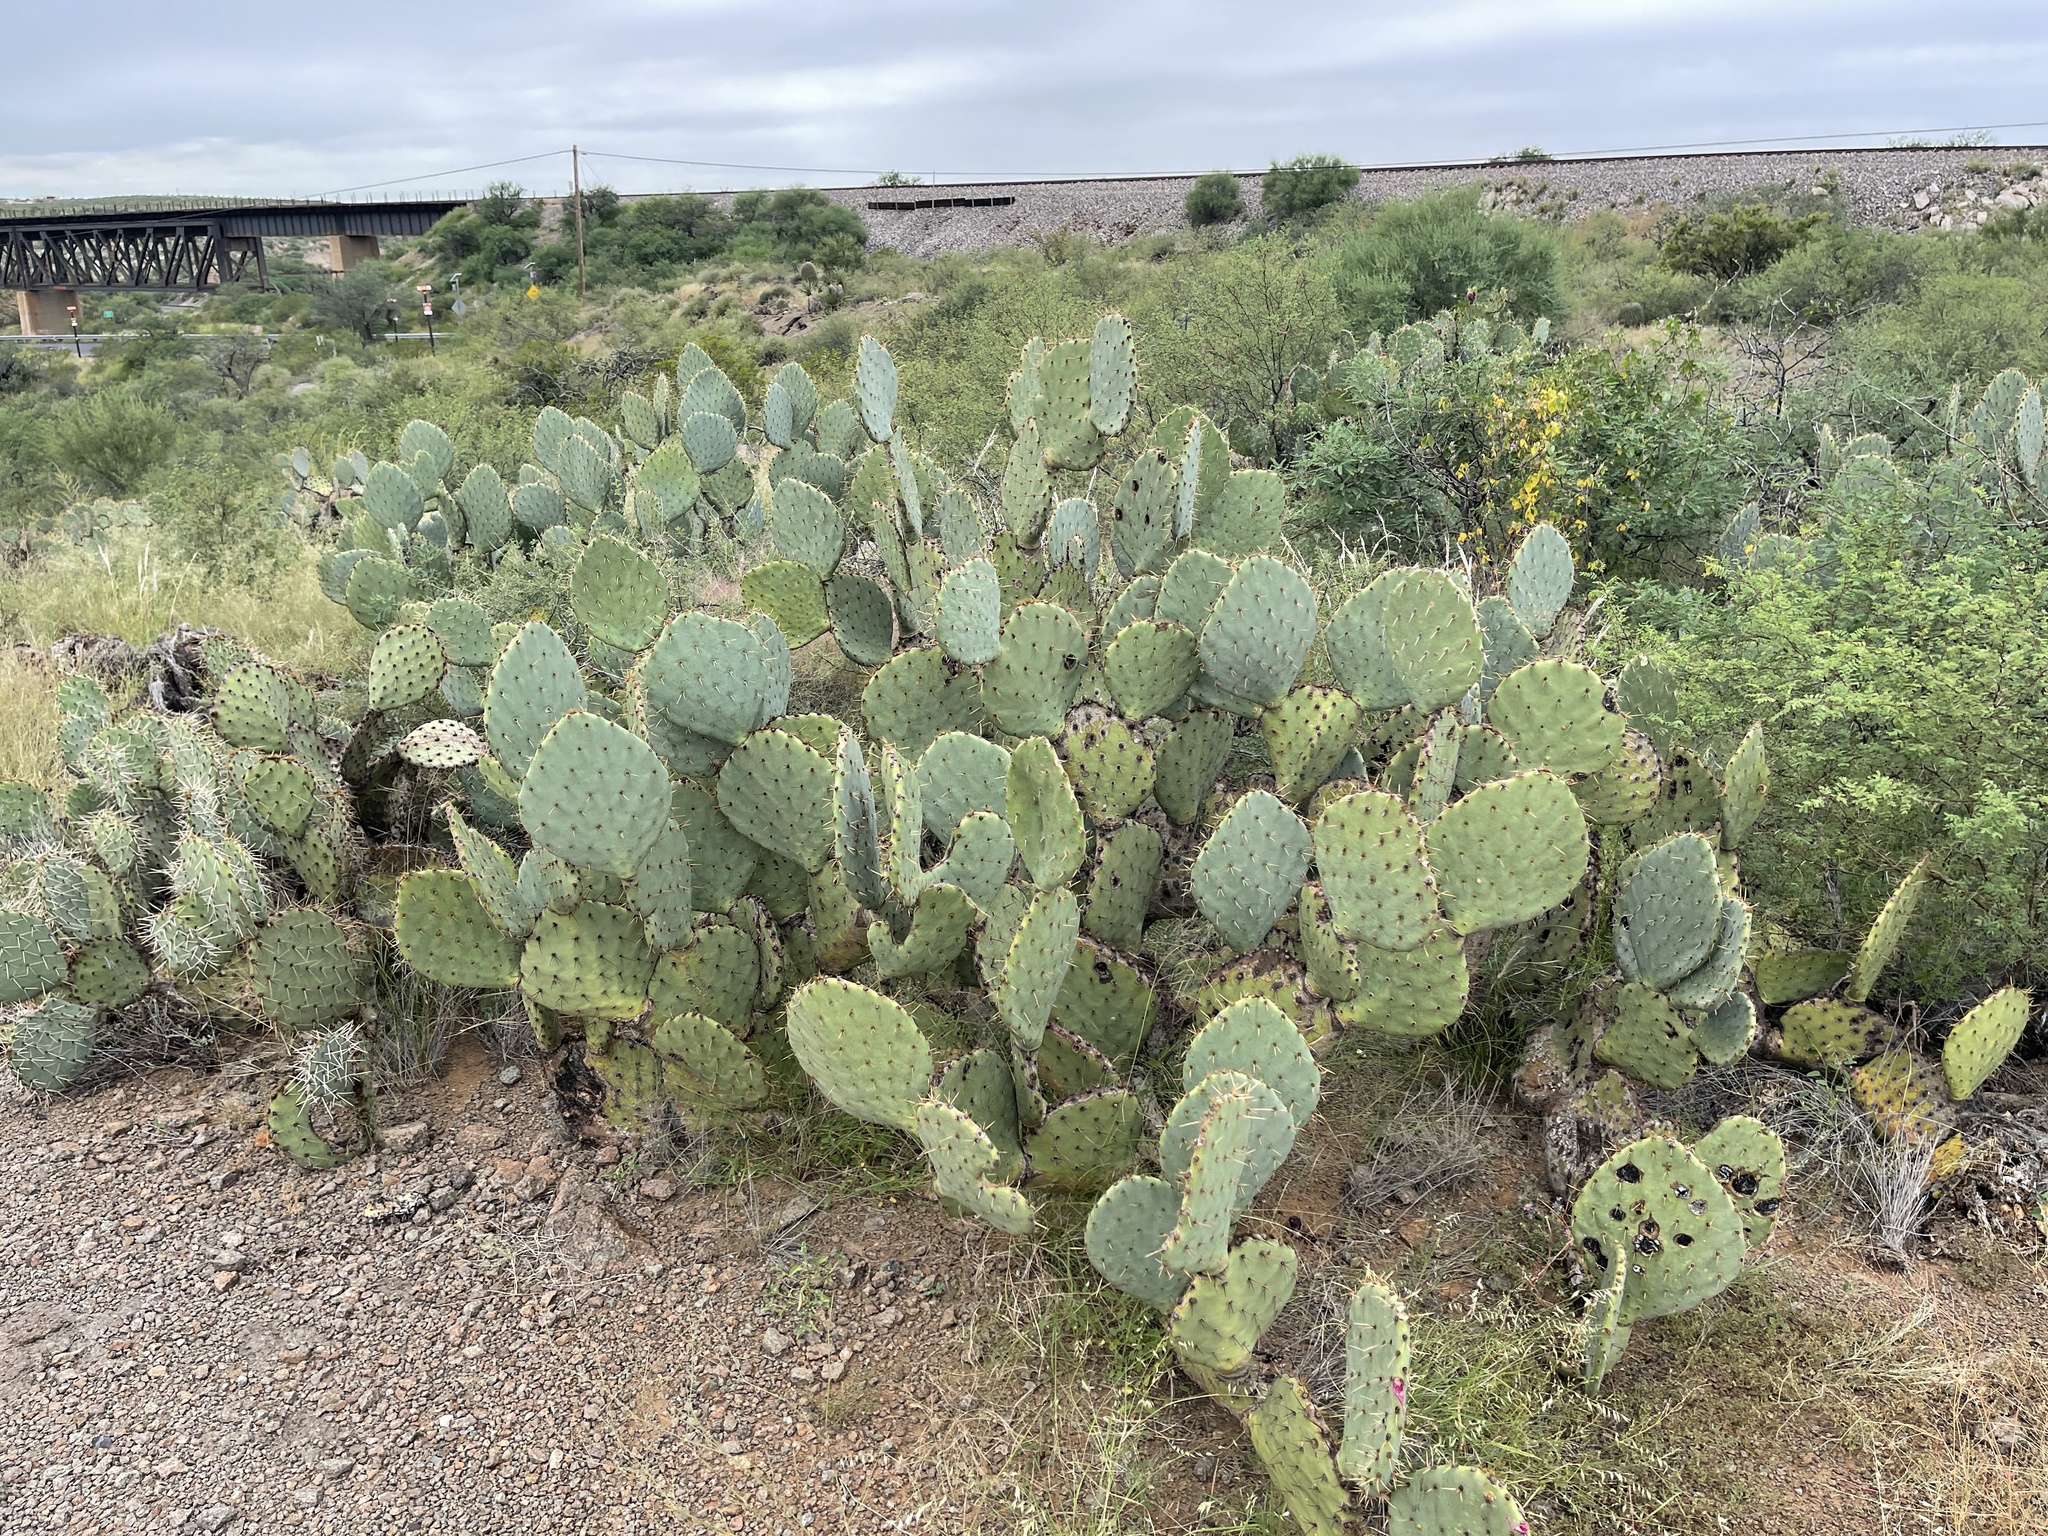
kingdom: Plantae
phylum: Tracheophyta
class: Magnoliopsida
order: Caryophyllales
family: Cactaceae
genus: Opuntia
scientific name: Opuntia engelmannii
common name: Cactus-apple
